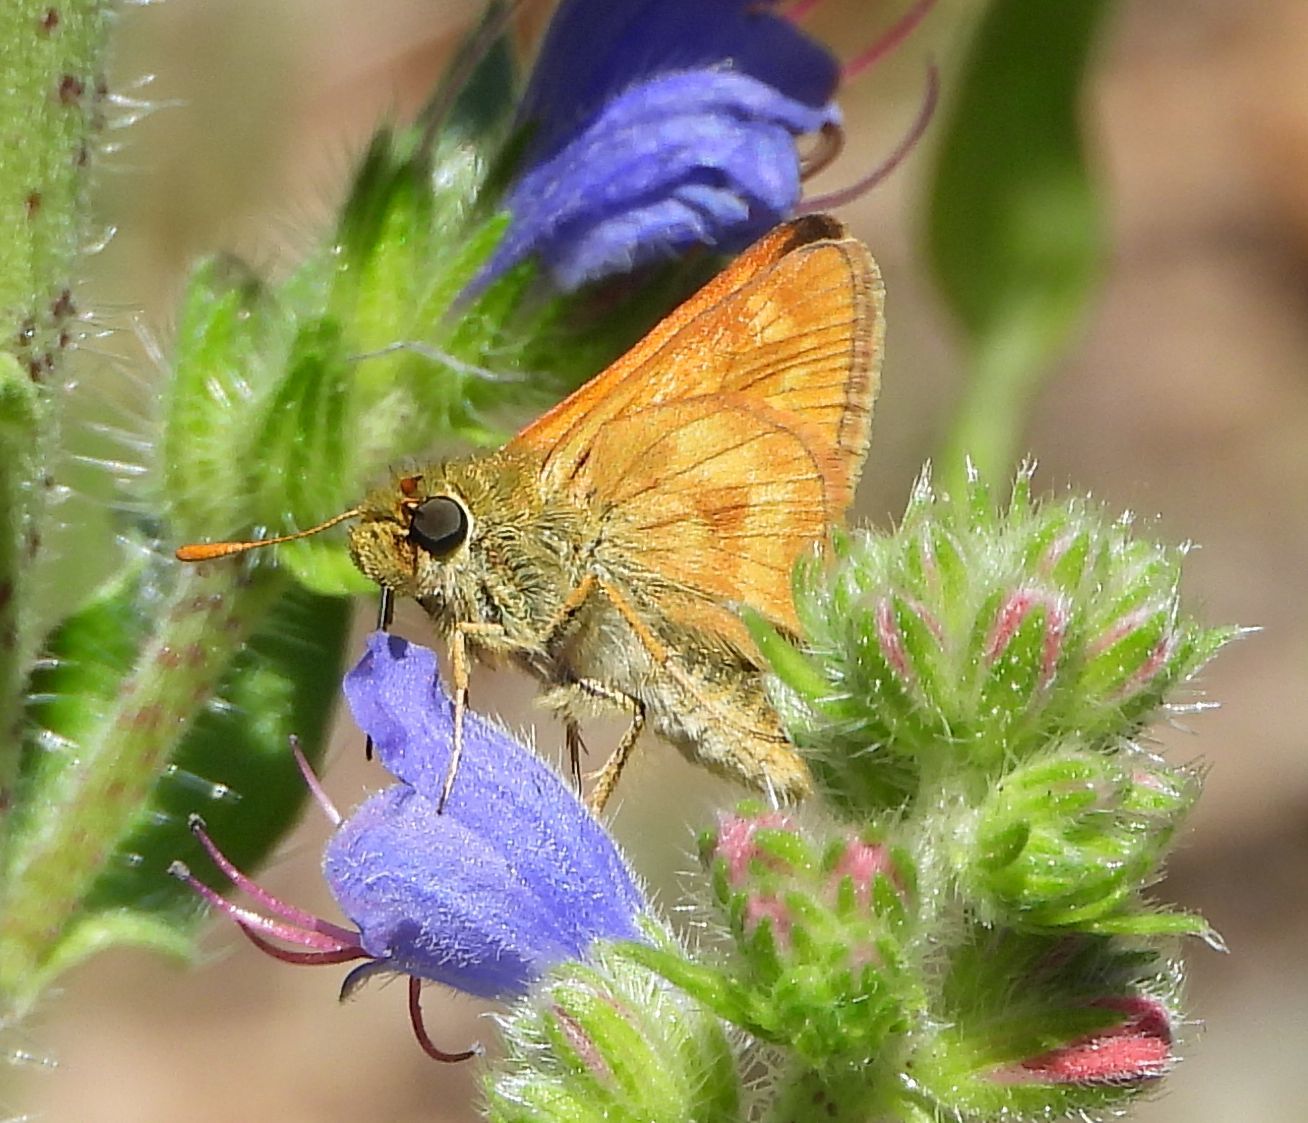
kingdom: Animalia
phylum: Arthropoda
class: Insecta
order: Lepidoptera
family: Hesperiidae
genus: Polites
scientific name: Polites mystic
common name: Long dash
